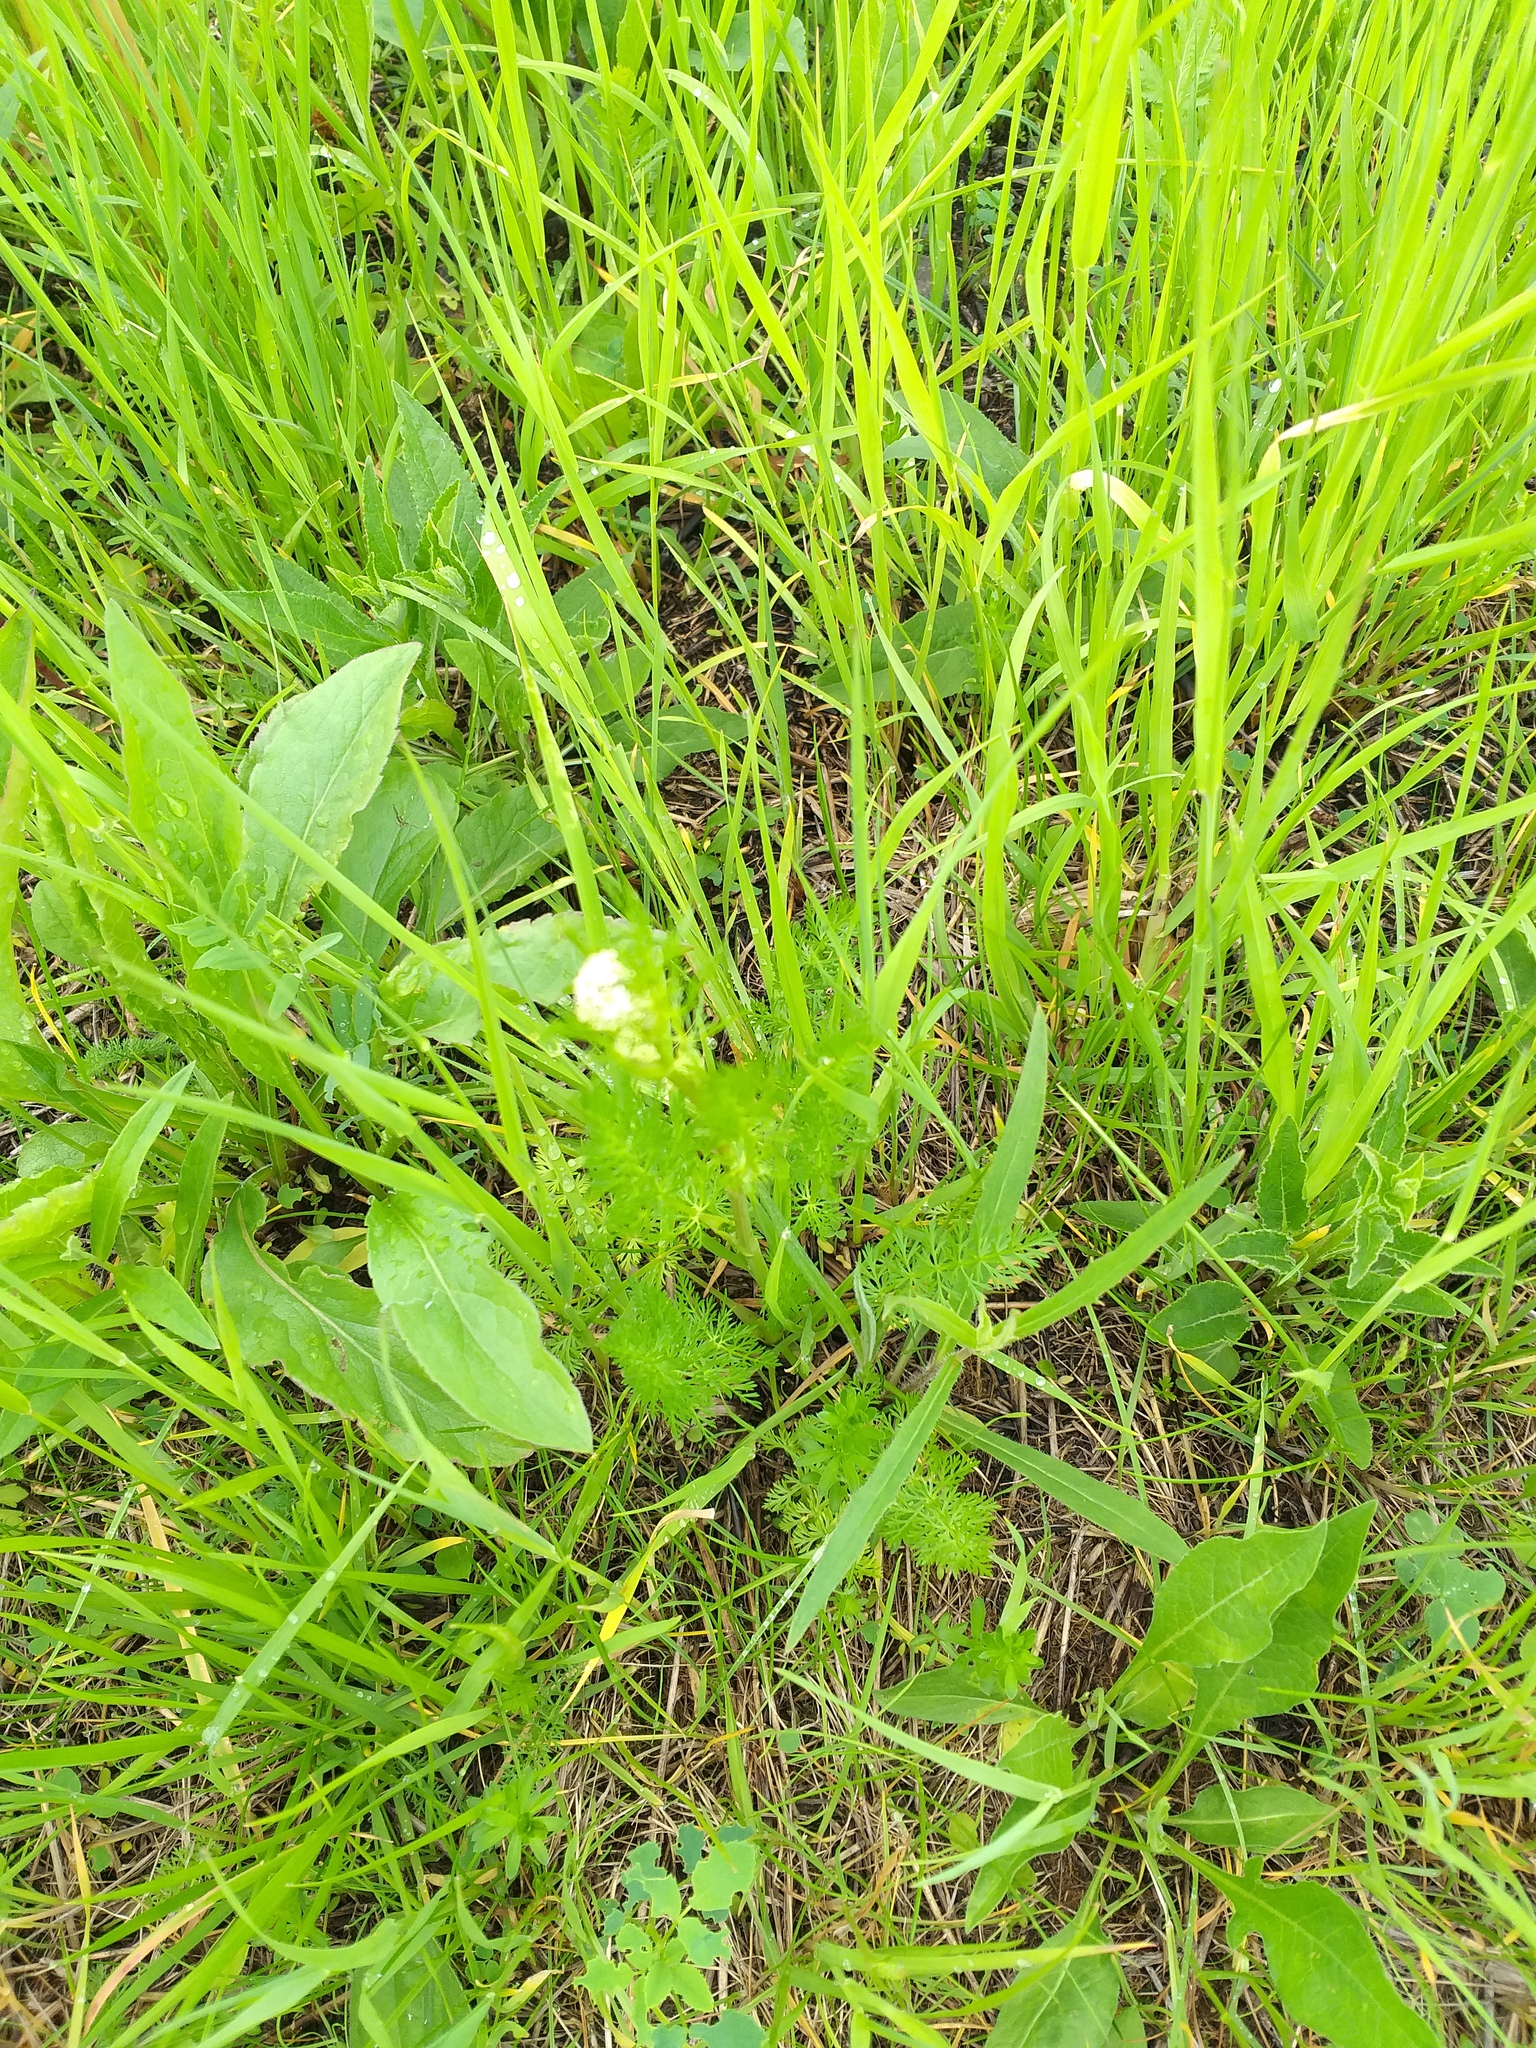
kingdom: Plantae
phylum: Tracheophyta
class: Magnoliopsida
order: Apiales
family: Apiaceae
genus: Carum
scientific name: Carum carvi
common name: Caraway
